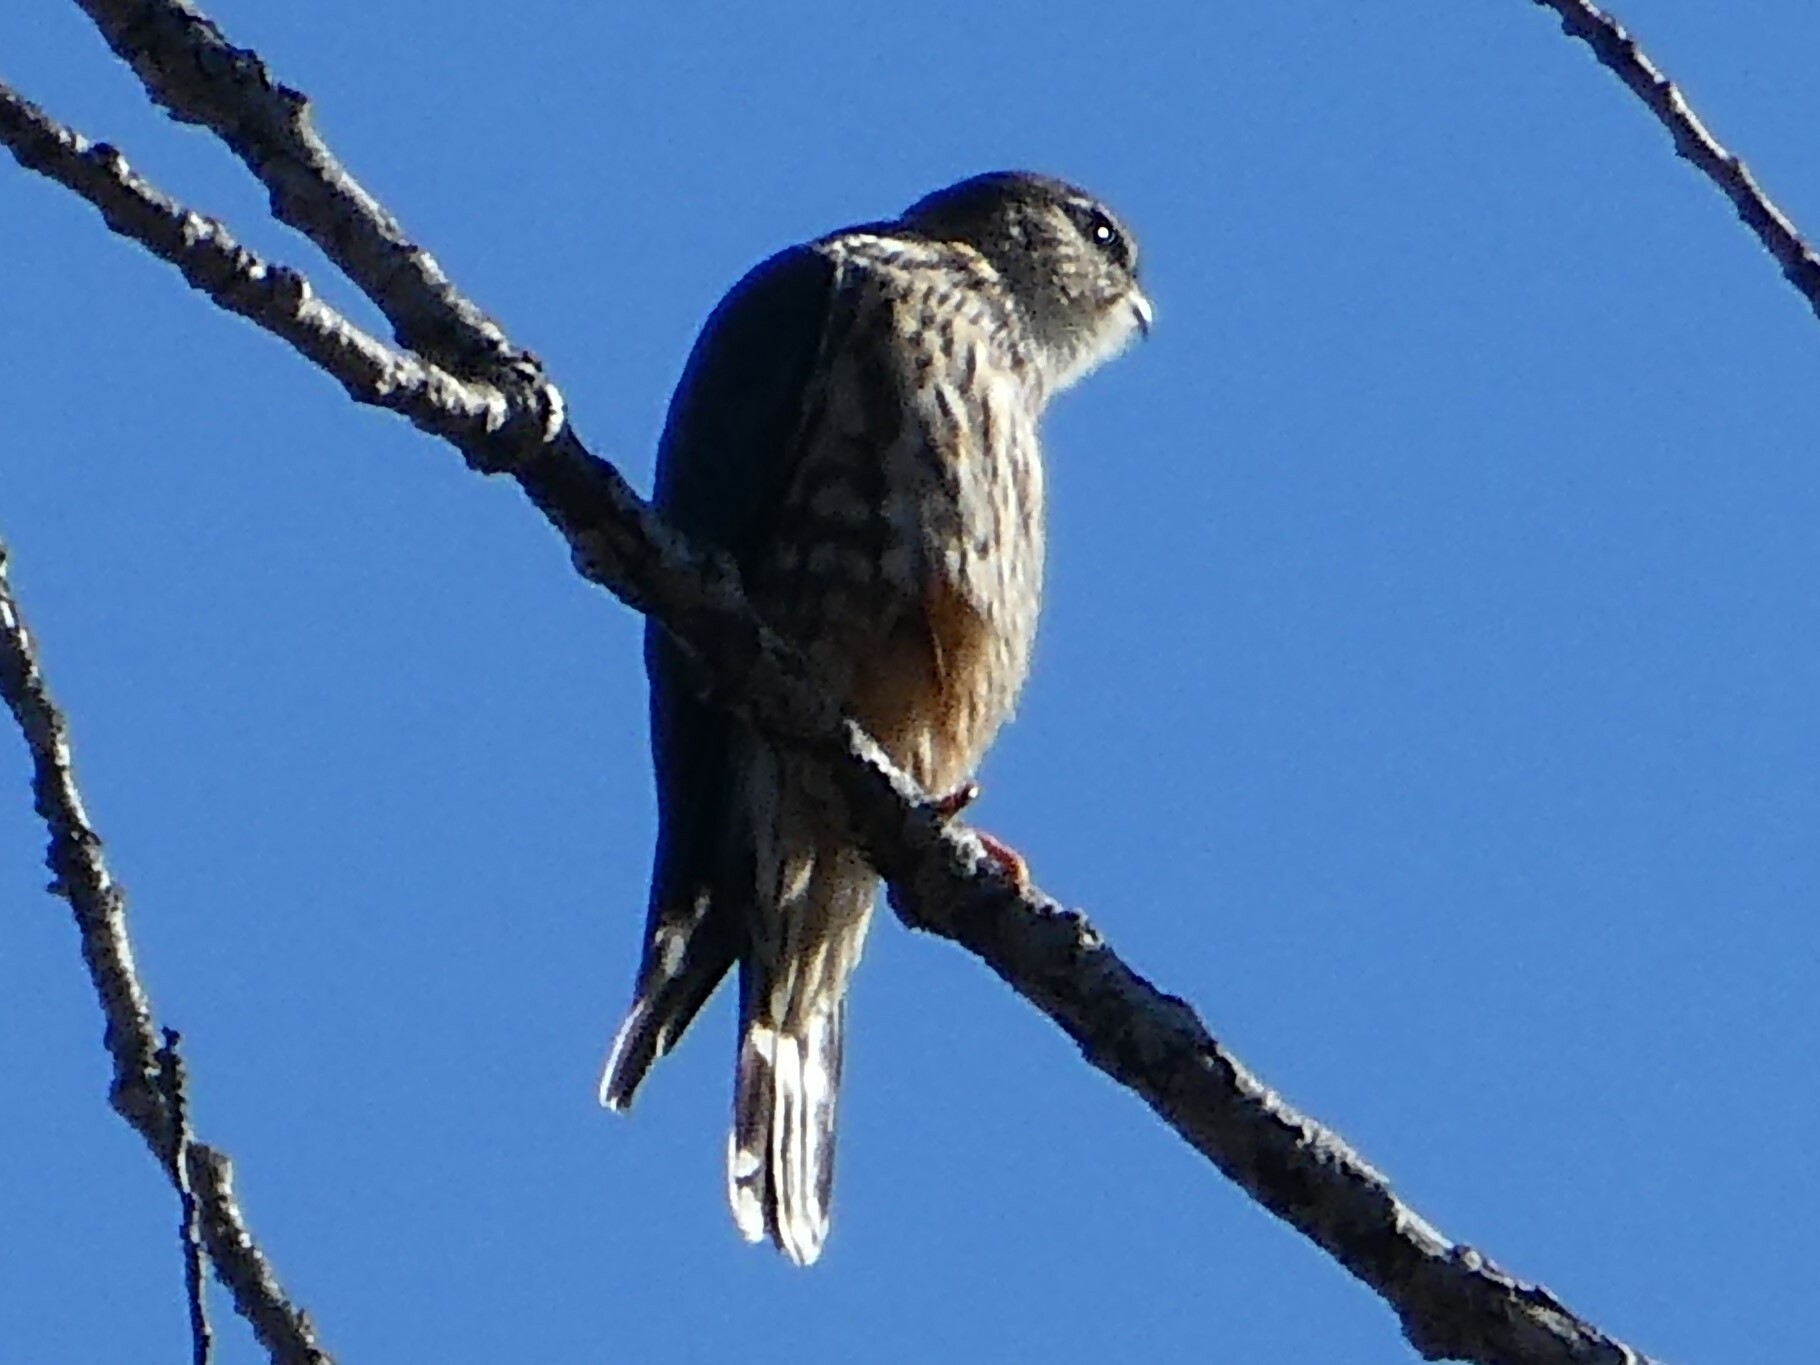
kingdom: Animalia
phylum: Chordata
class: Aves
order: Falconiformes
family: Falconidae
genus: Falco
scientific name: Falco columbarius
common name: Merlin
